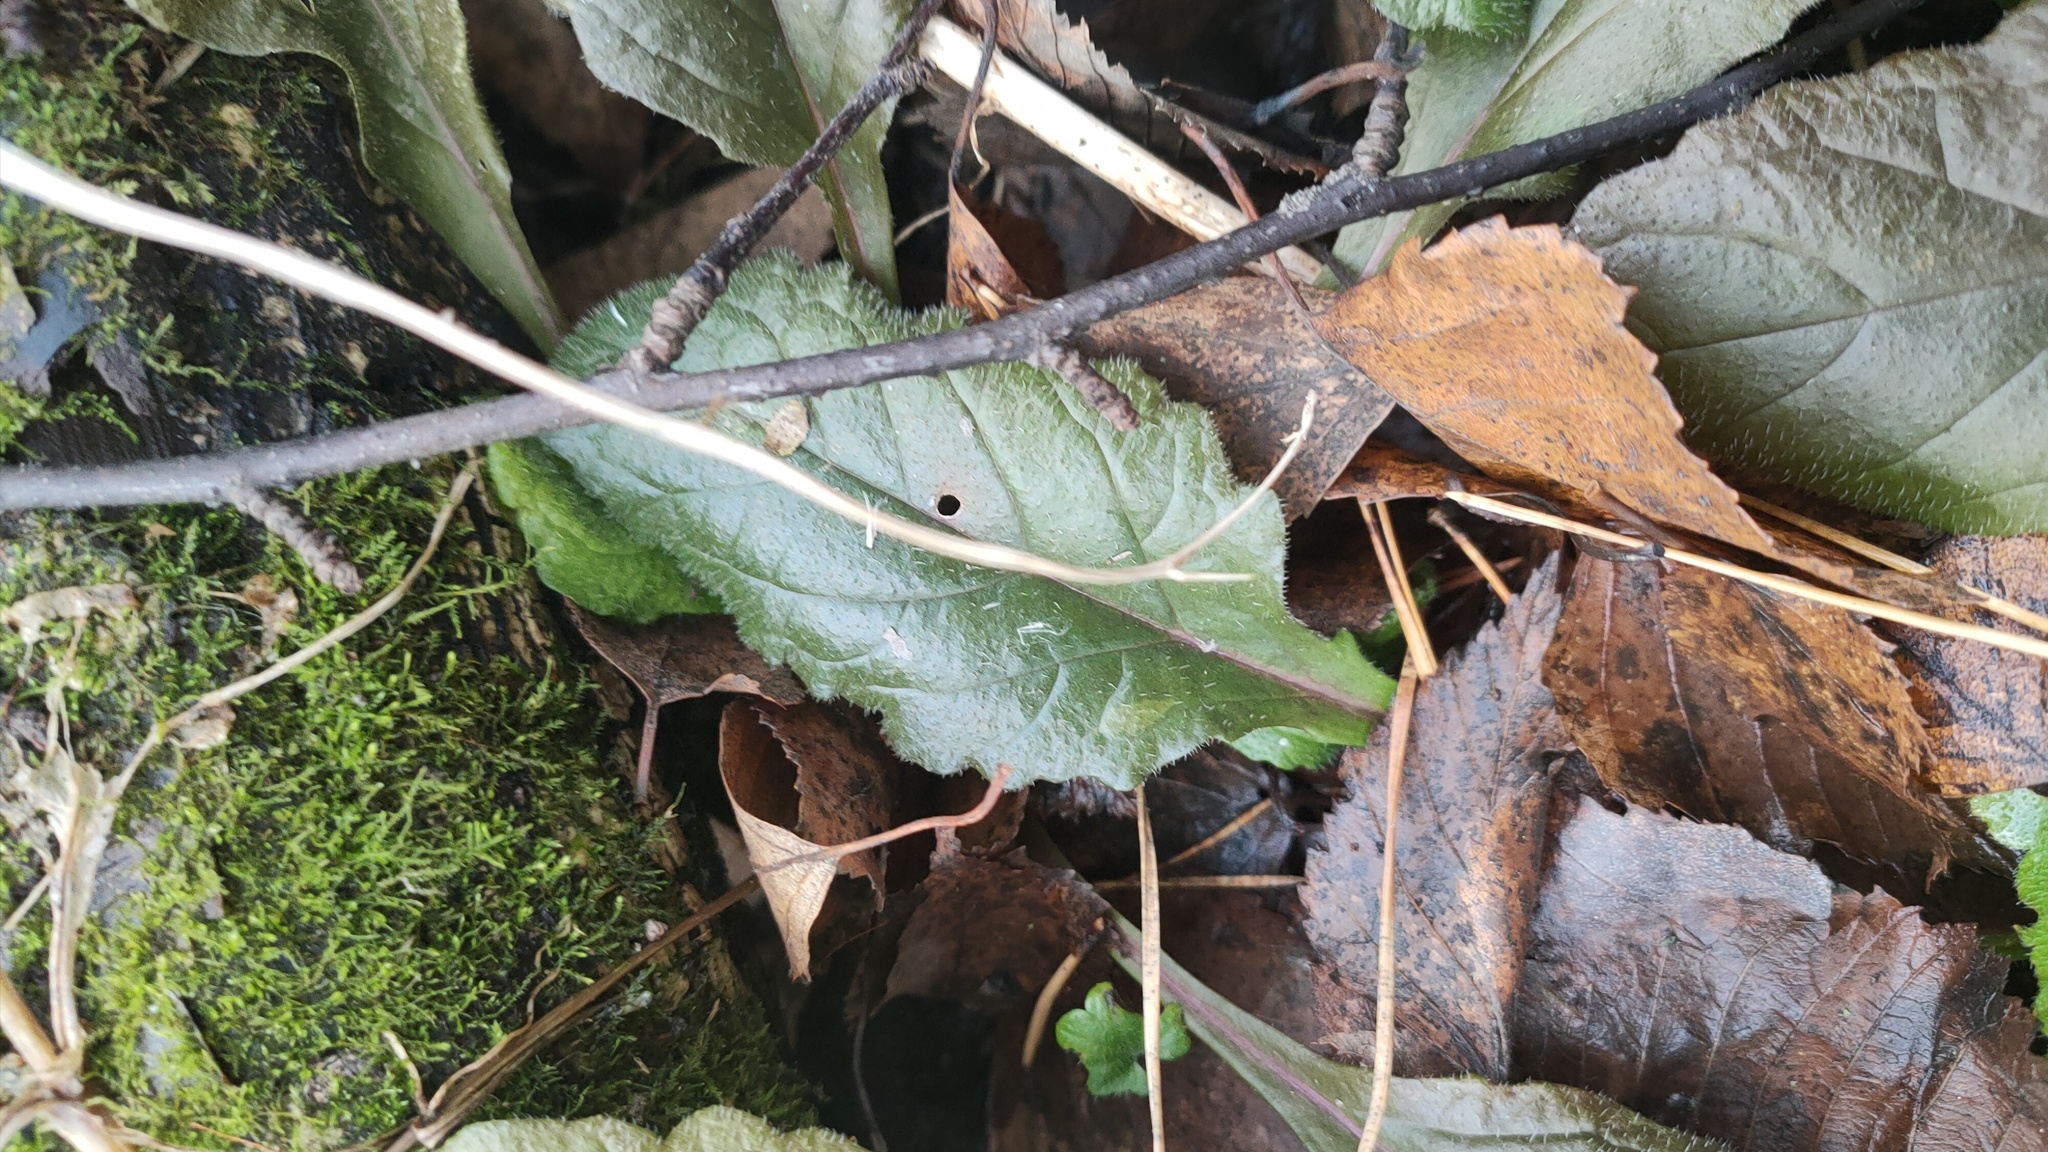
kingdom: Plantae
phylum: Tracheophyta
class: Magnoliopsida
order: Lamiales
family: Lamiaceae
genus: Ajuga
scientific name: Ajuga reptans
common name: Bugle
